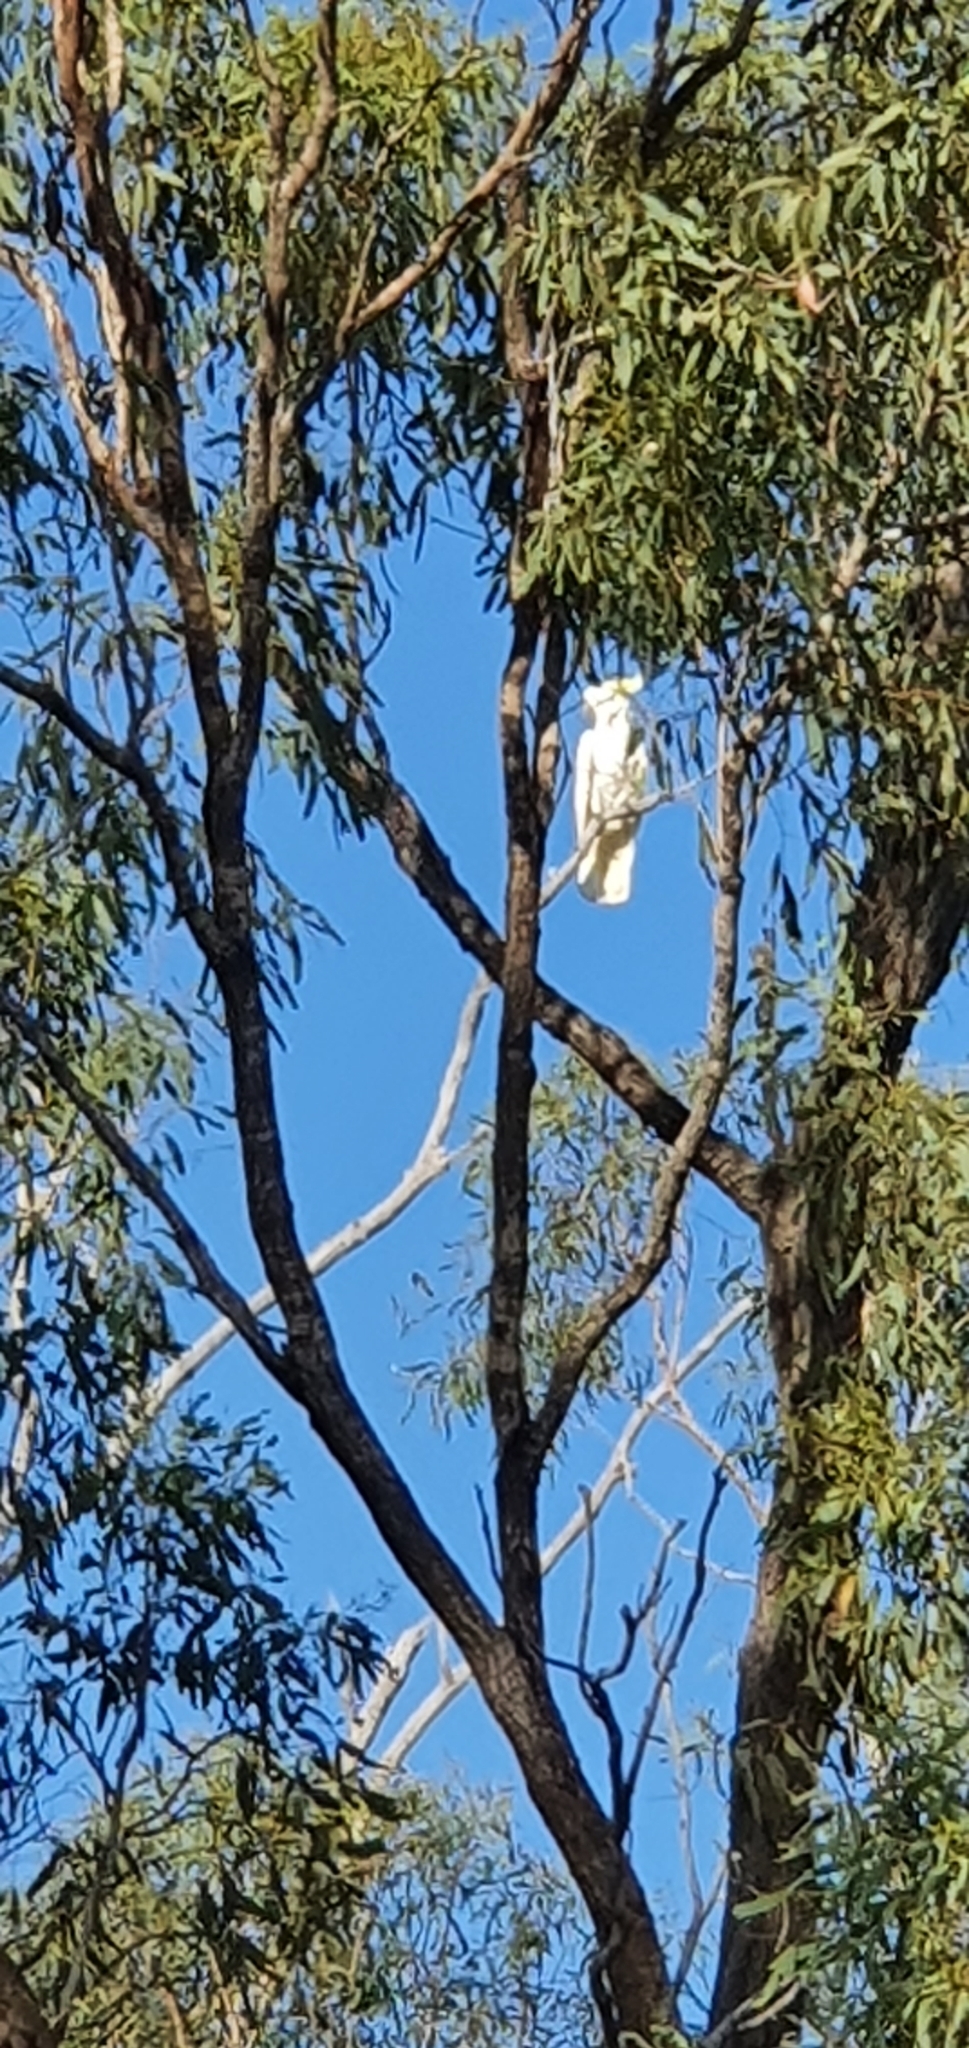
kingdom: Animalia
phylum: Chordata
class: Aves
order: Psittaciformes
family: Psittacidae
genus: Cacatua
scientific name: Cacatua galerita
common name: Sulphur-crested cockatoo
